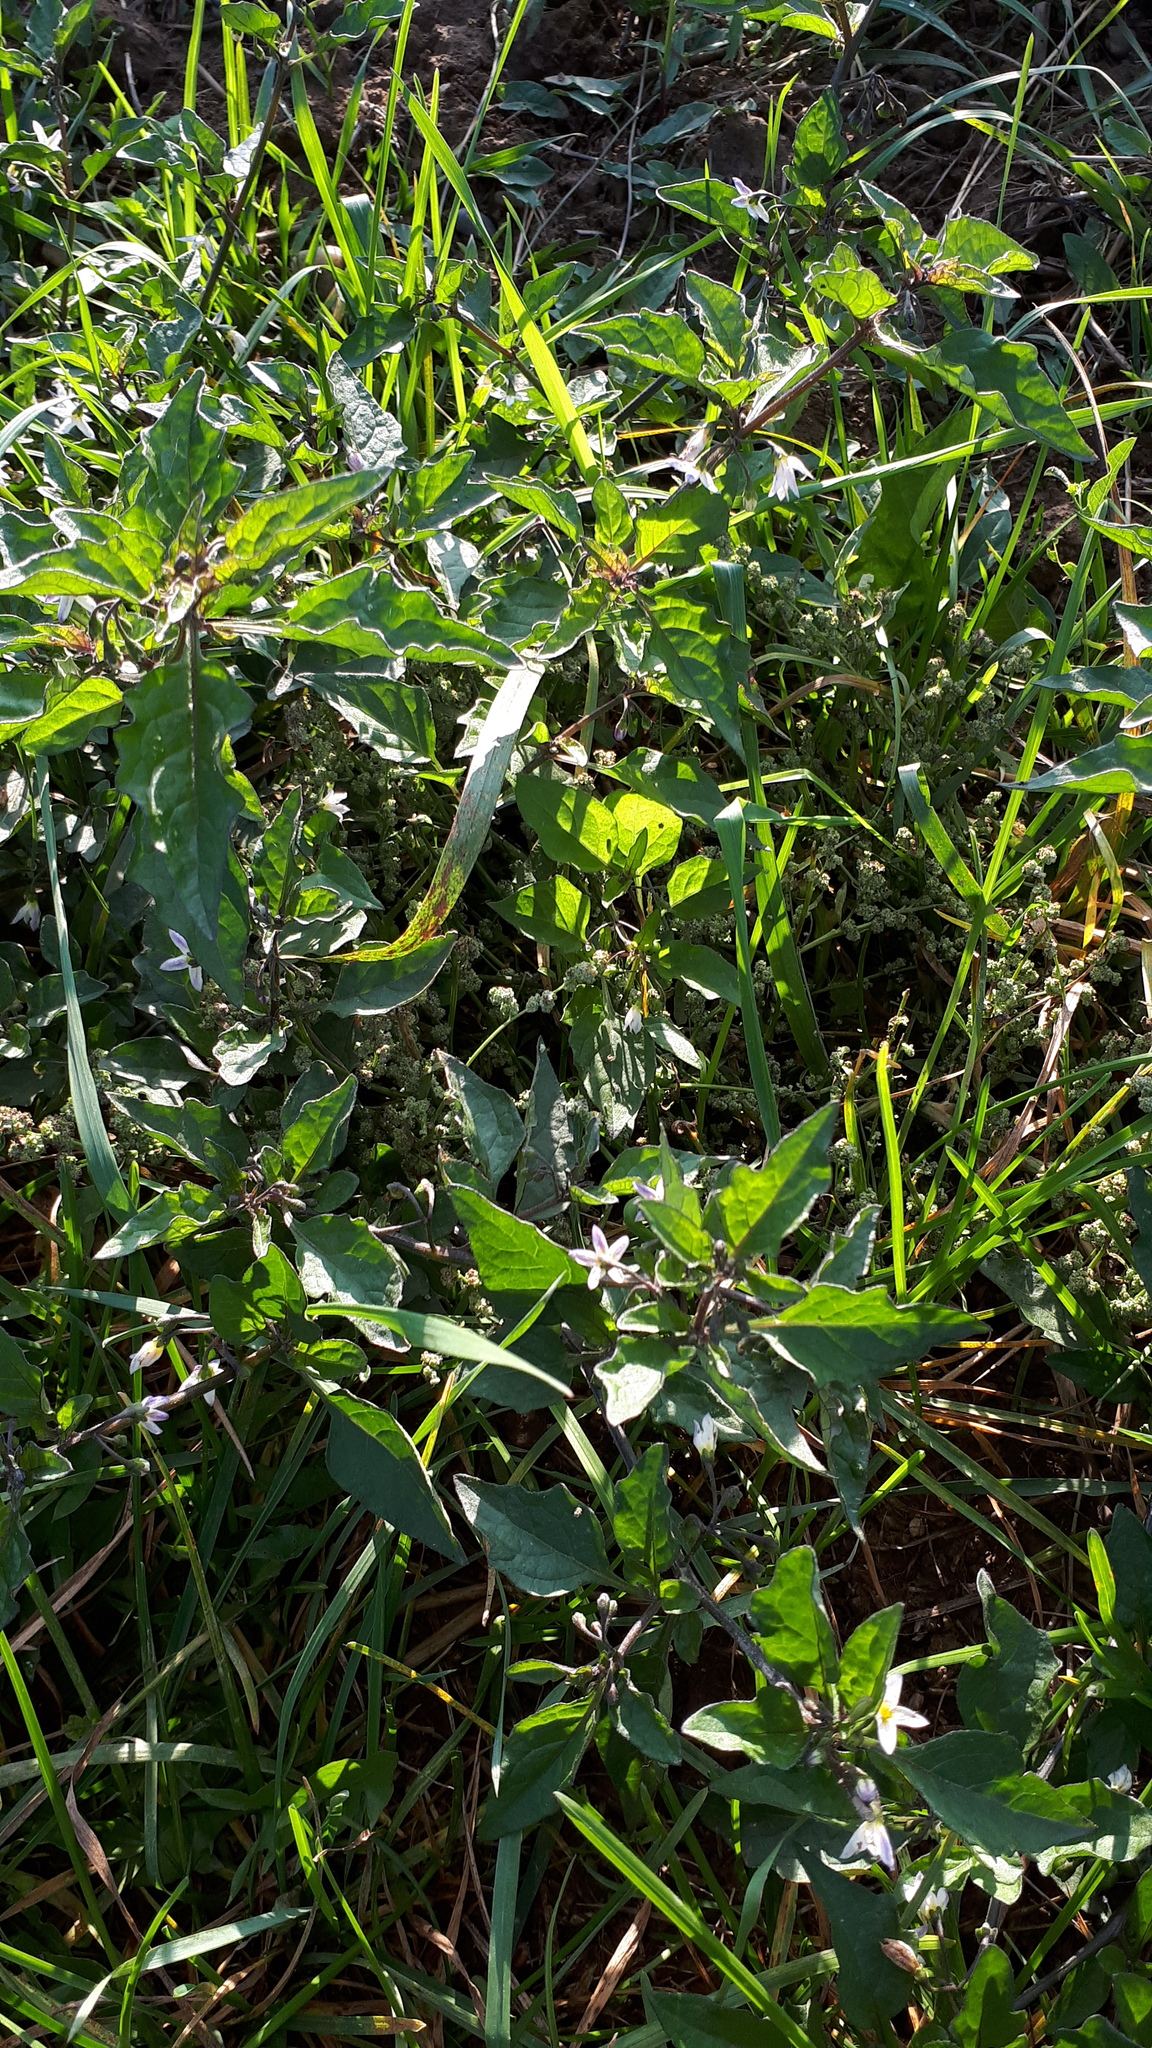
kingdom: Plantae
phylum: Tracheophyta
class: Magnoliopsida
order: Solanales
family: Solanaceae
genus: Solanum
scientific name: Solanum nigrum
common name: Black nightshade
